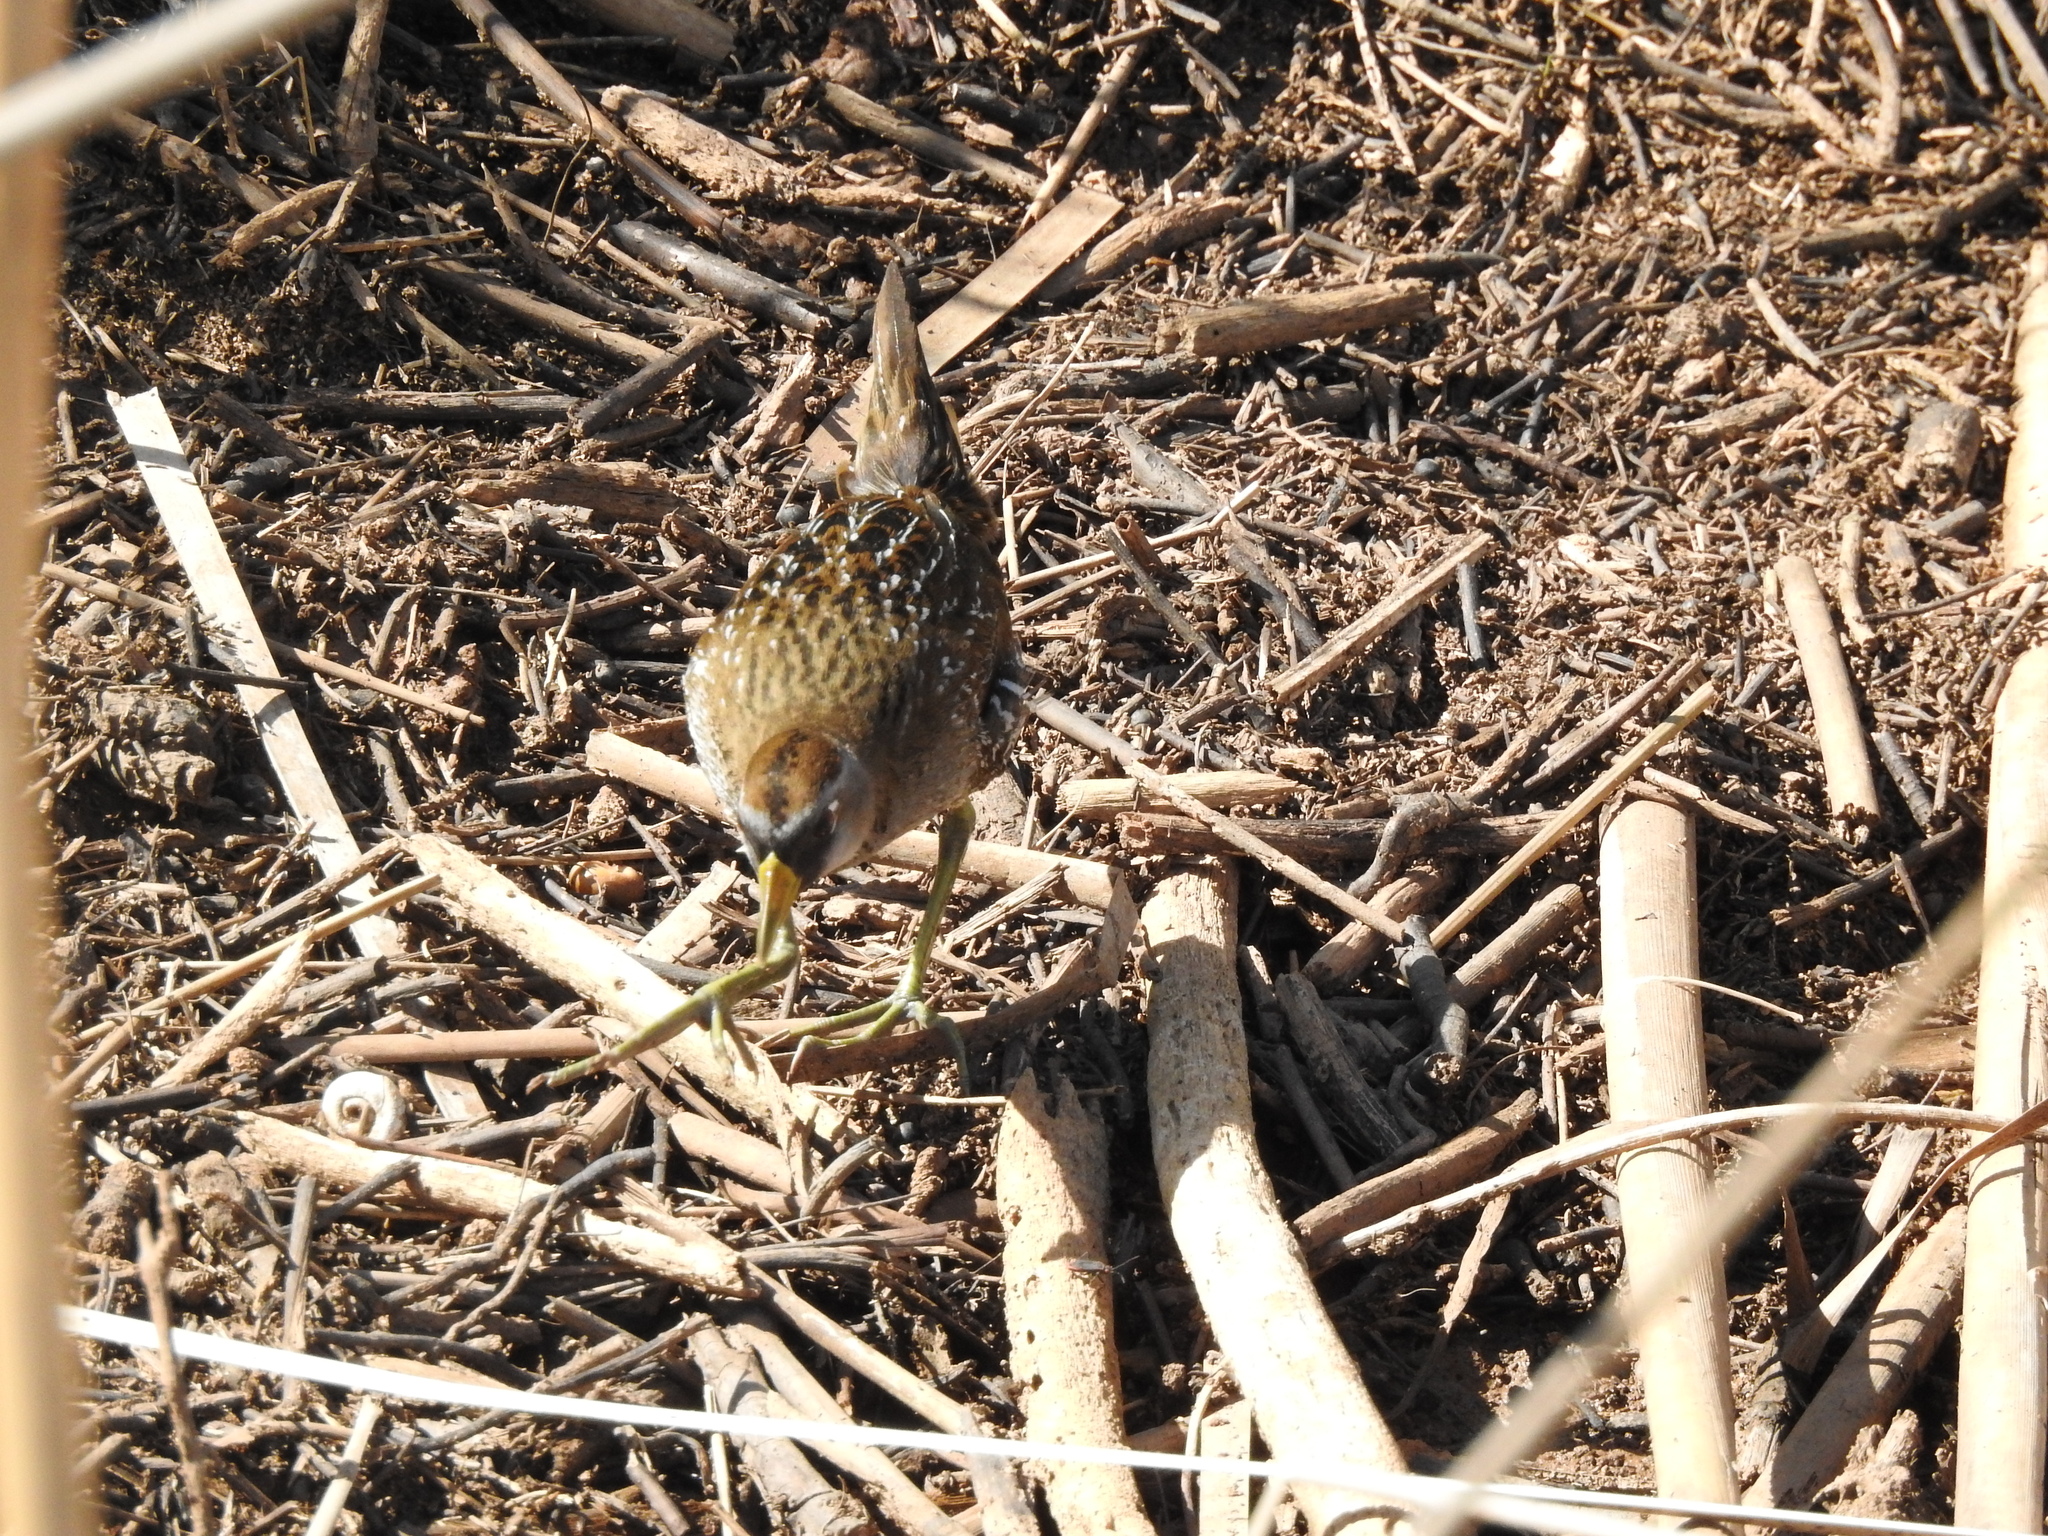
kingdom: Animalia
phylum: Chordata
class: Aves
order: Gruiformes
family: Rallidae
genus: Porzana
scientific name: Porzana carolina
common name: Sora
